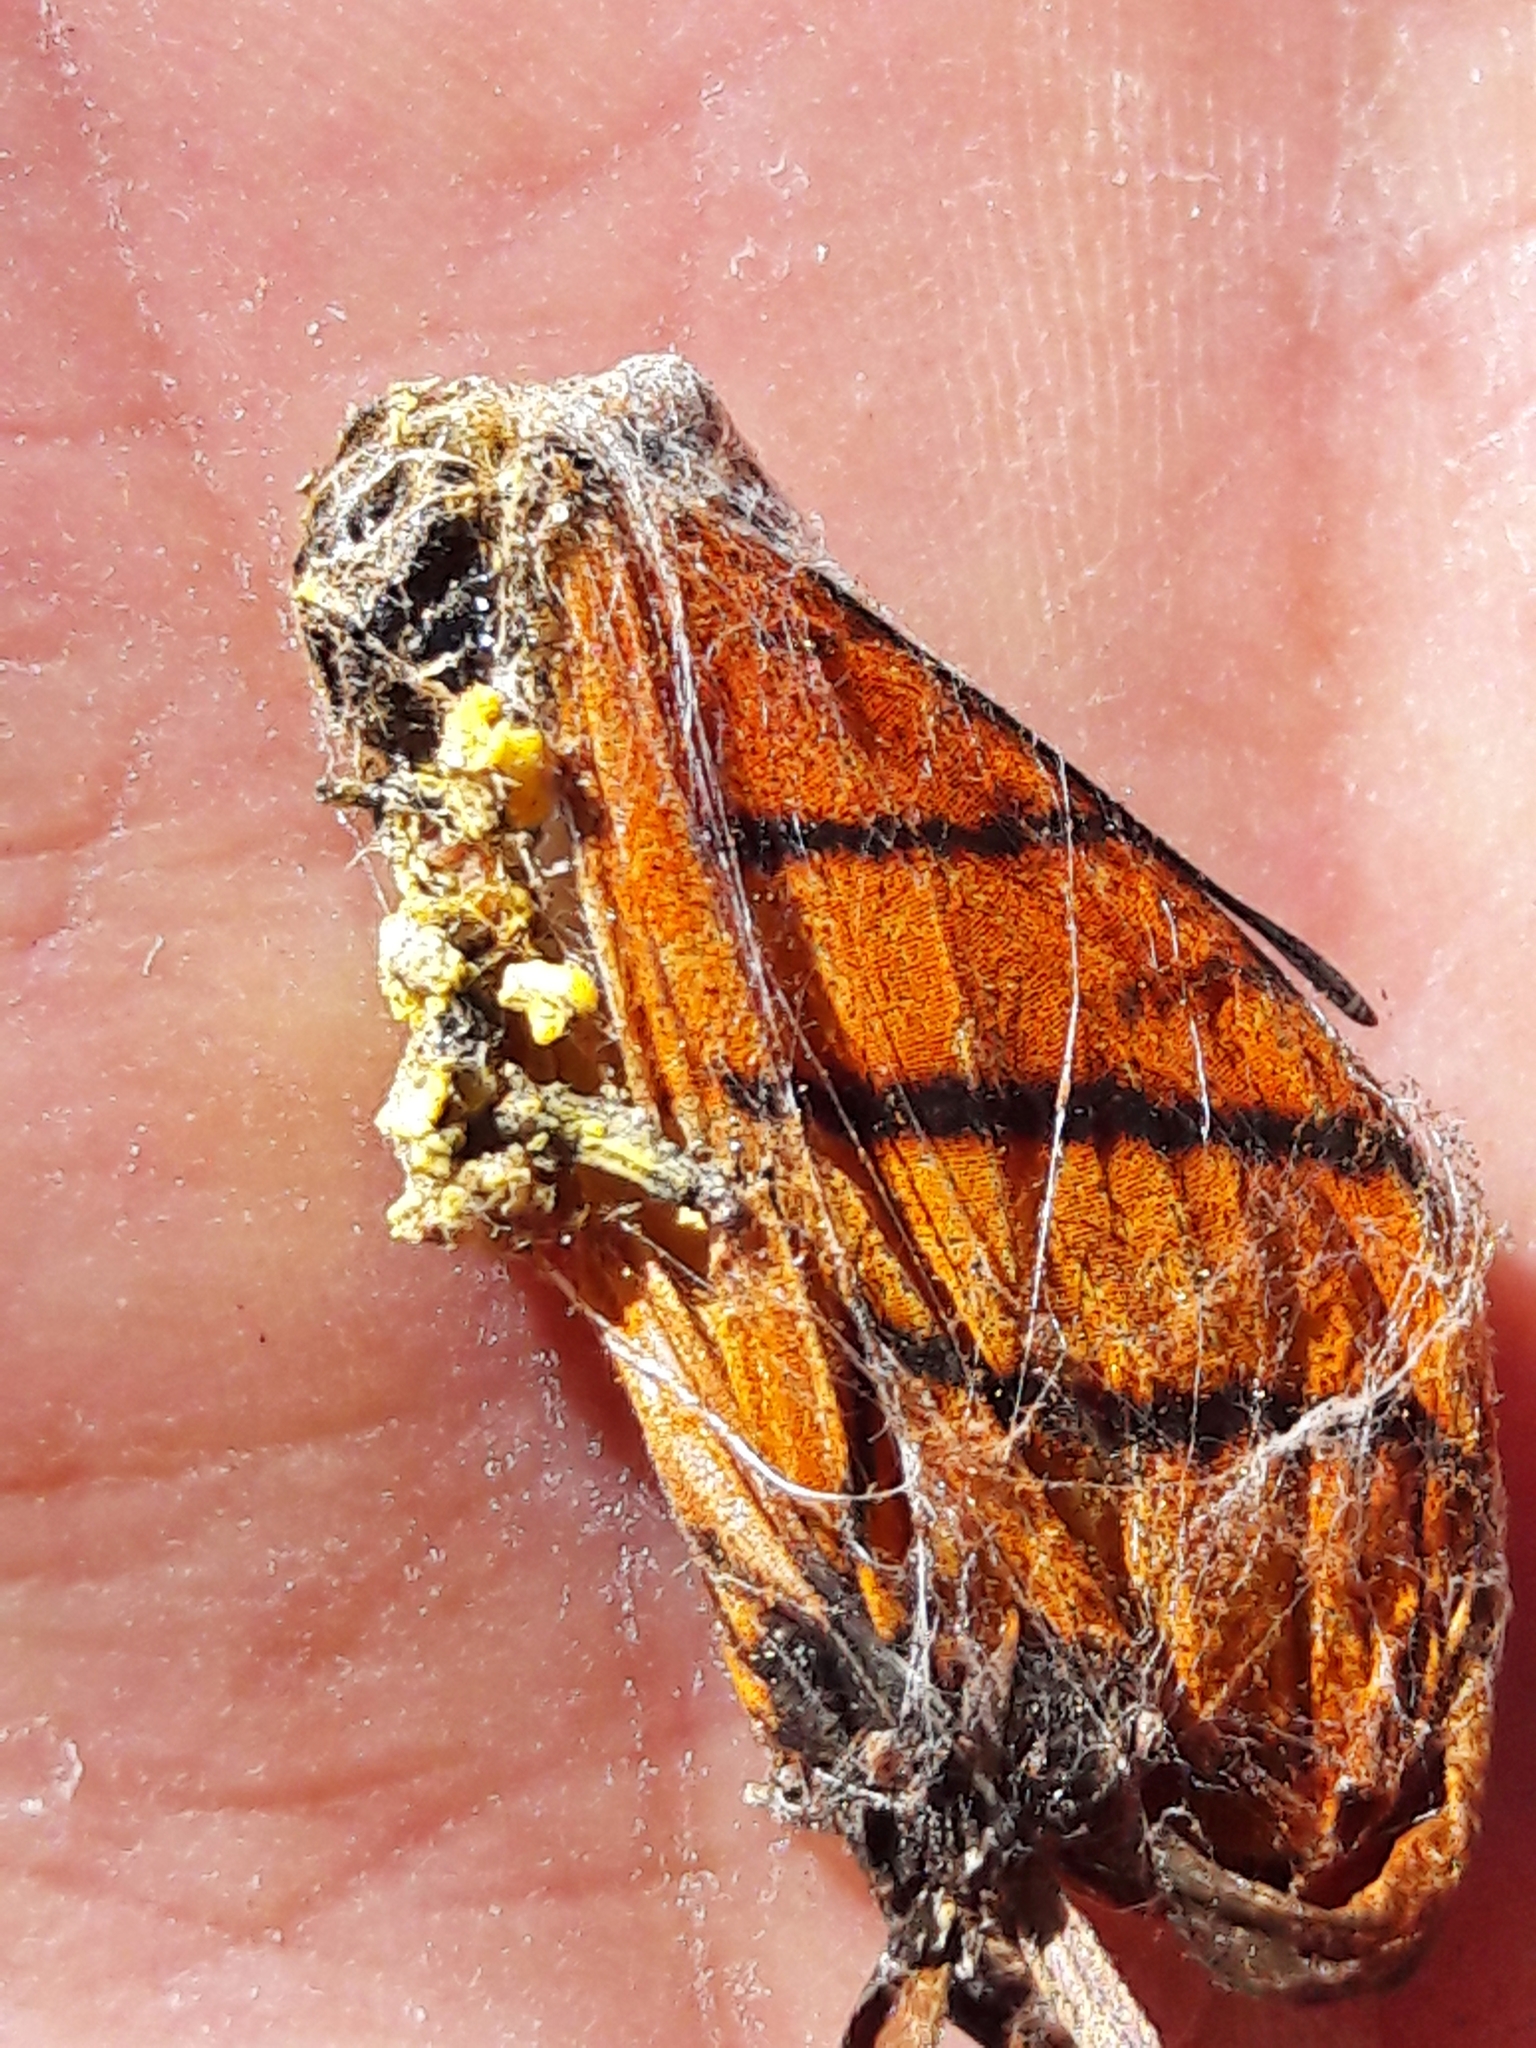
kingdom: Animalia
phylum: Arthropoda
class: Insecta
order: Lepidoptera
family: Nymphalidae
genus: Marpesia
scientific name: Marpesia petreus
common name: Red dagger wing
